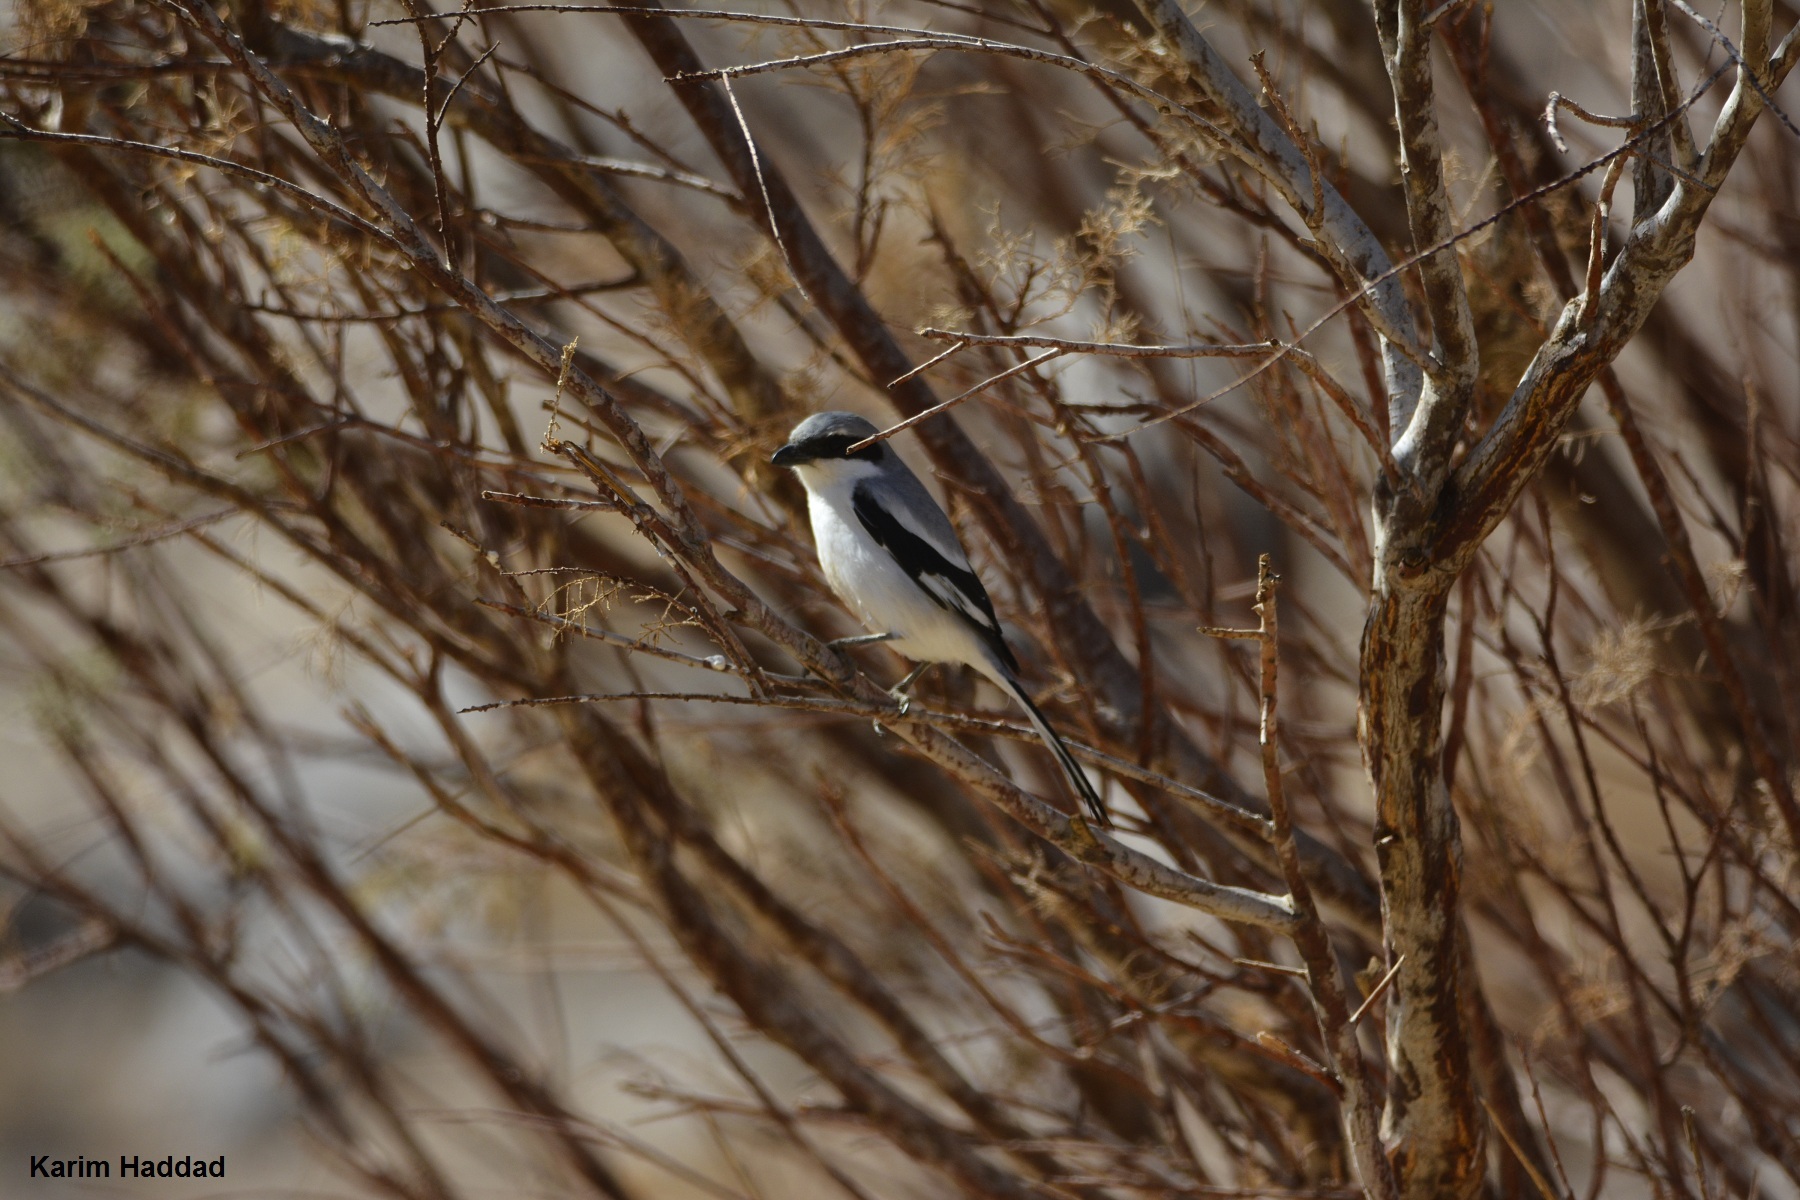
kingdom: Animalia
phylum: Chordata
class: Aves
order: Passeriformes
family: Laniidae
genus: Lanius
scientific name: Lanius excubitor
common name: Great grey shrike
